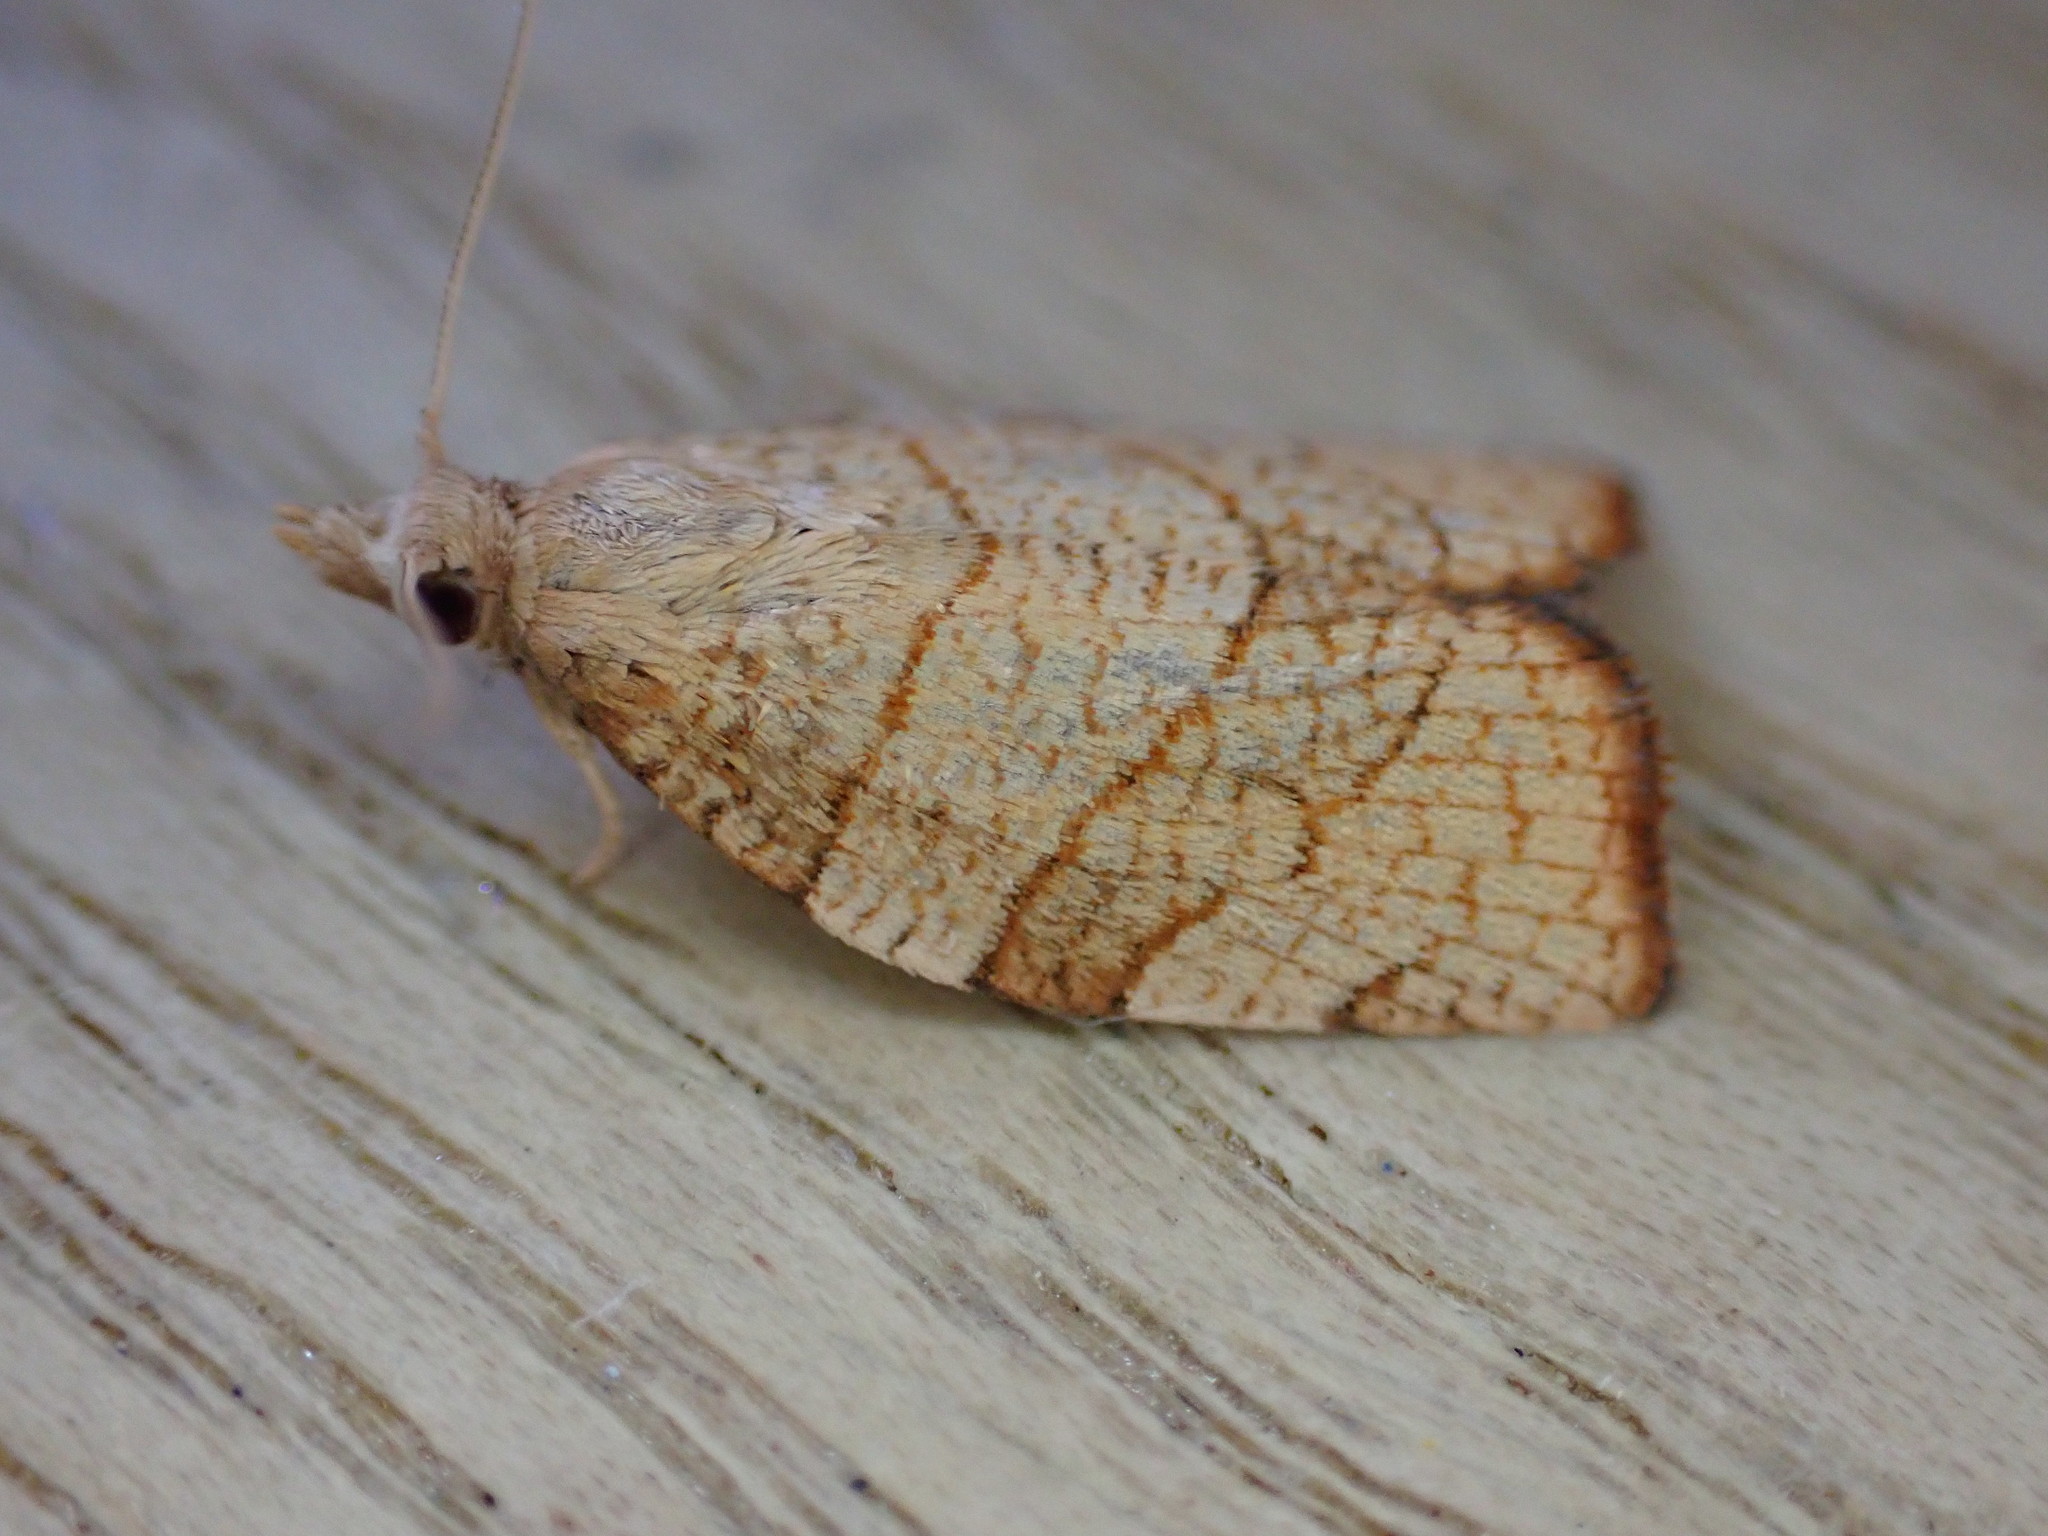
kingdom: Animalia
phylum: Arthropoda
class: Insecta
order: Lepidoptera
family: Tortricidae
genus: Pandemis
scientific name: Pandemis corylana
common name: Chequered fruit-tree tortrix
